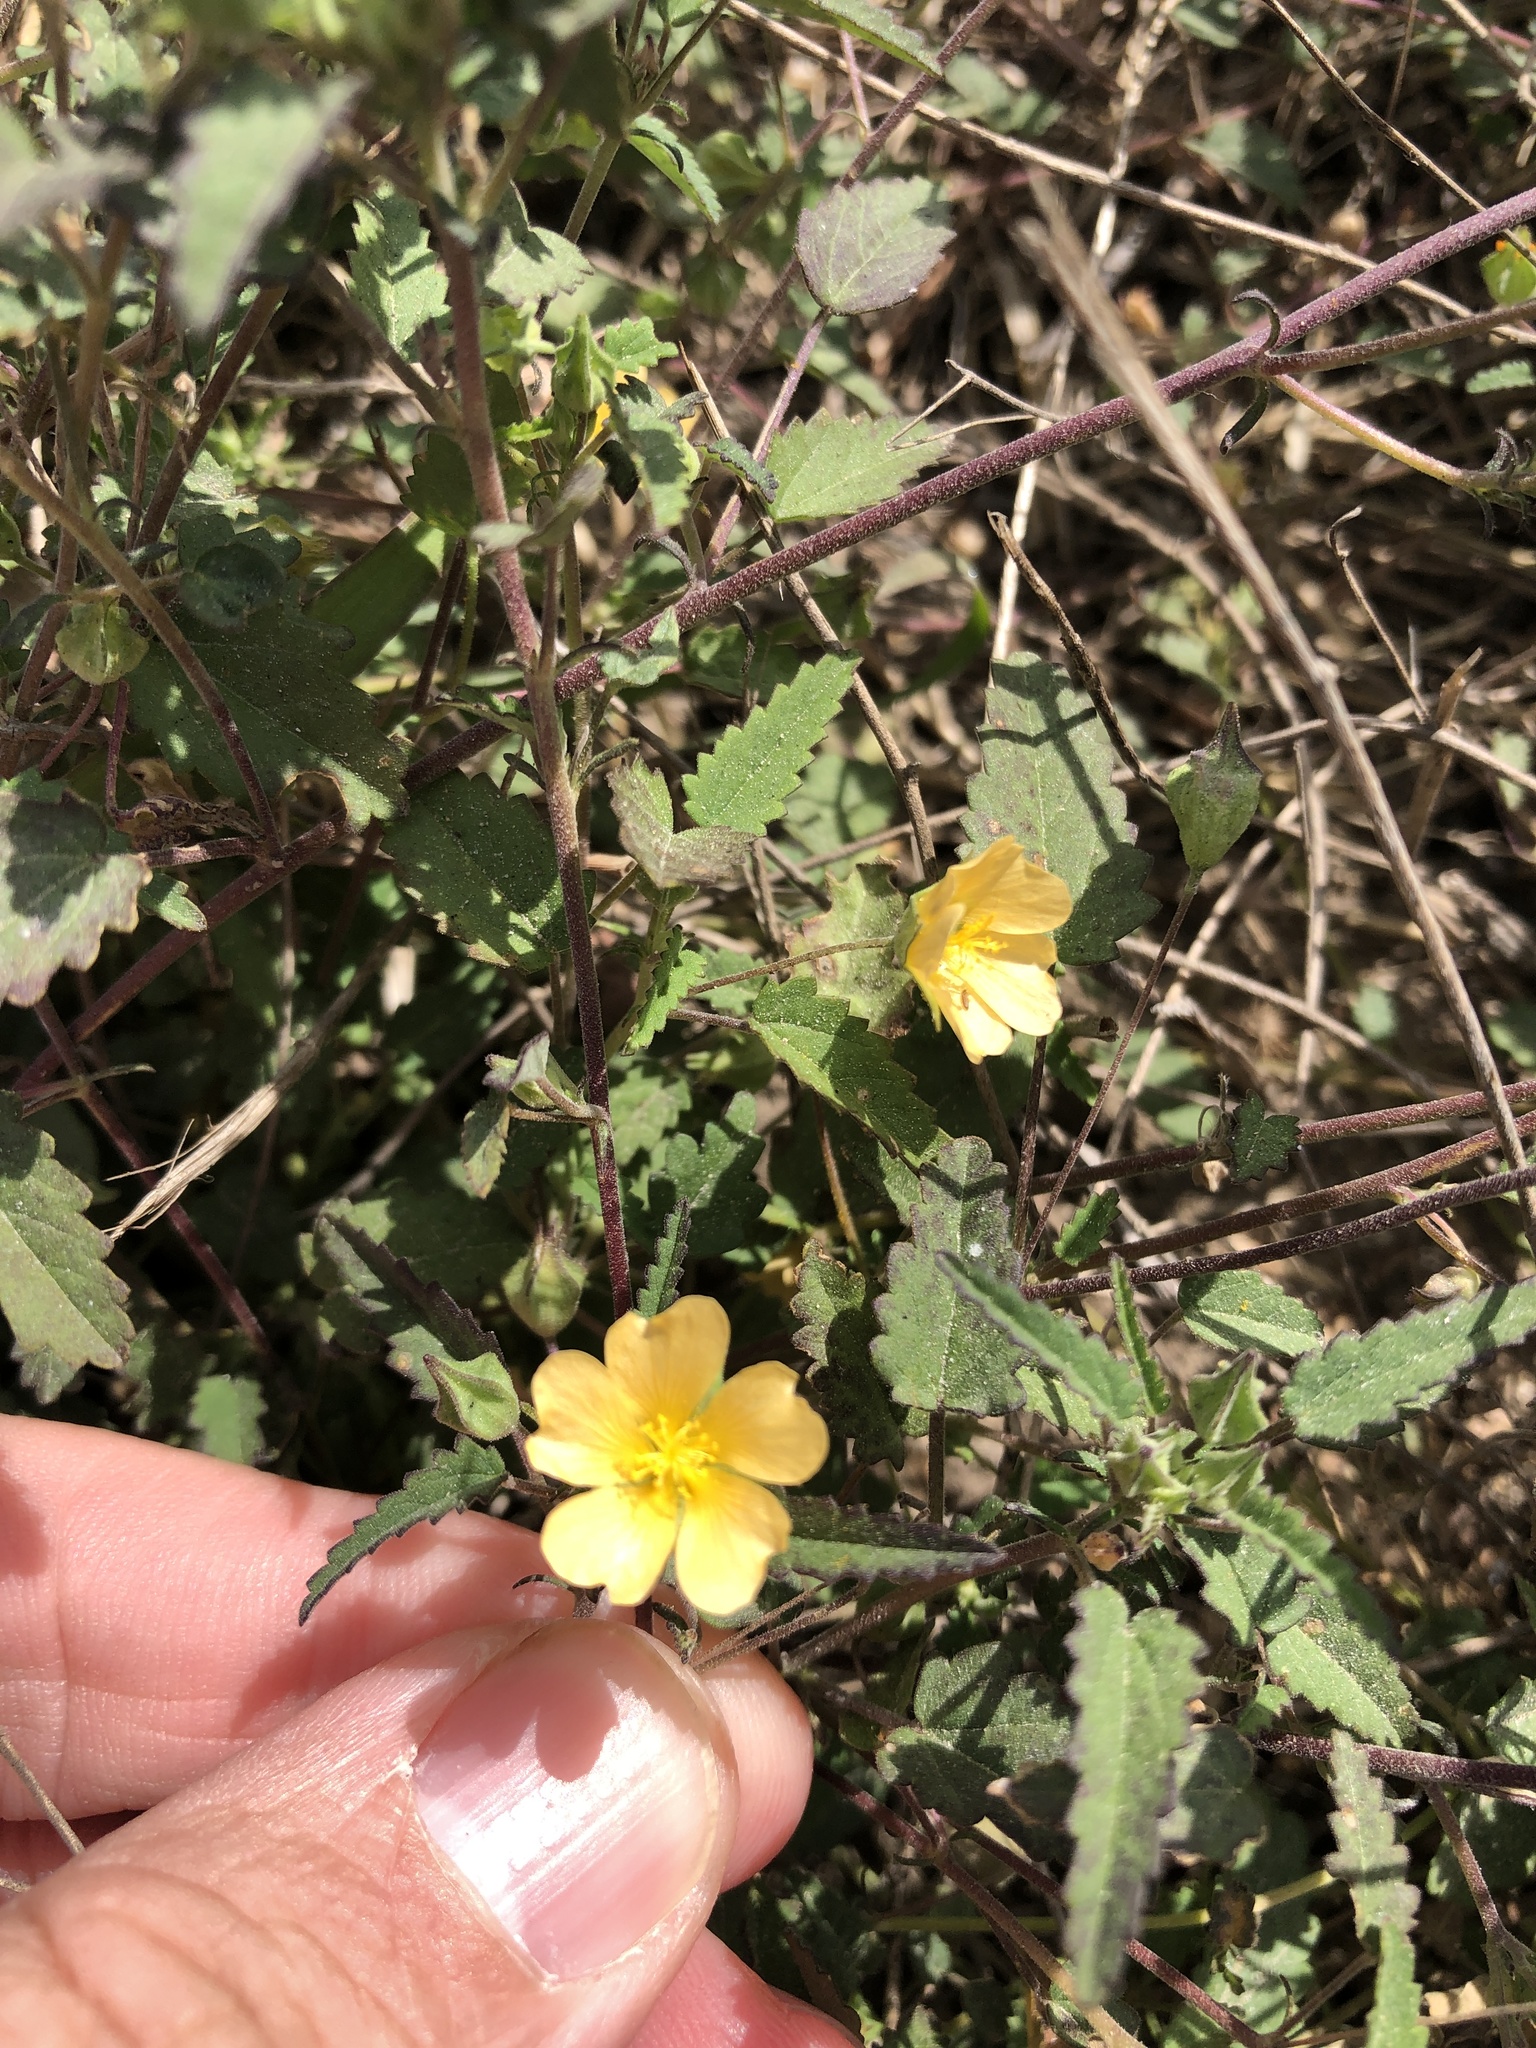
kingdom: Plantae
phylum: Tracheophyta
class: Magnoliopsida
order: Malvales
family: Malvaceae
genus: Sida
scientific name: Sida abutilifolia
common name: Spreading fanpetals
